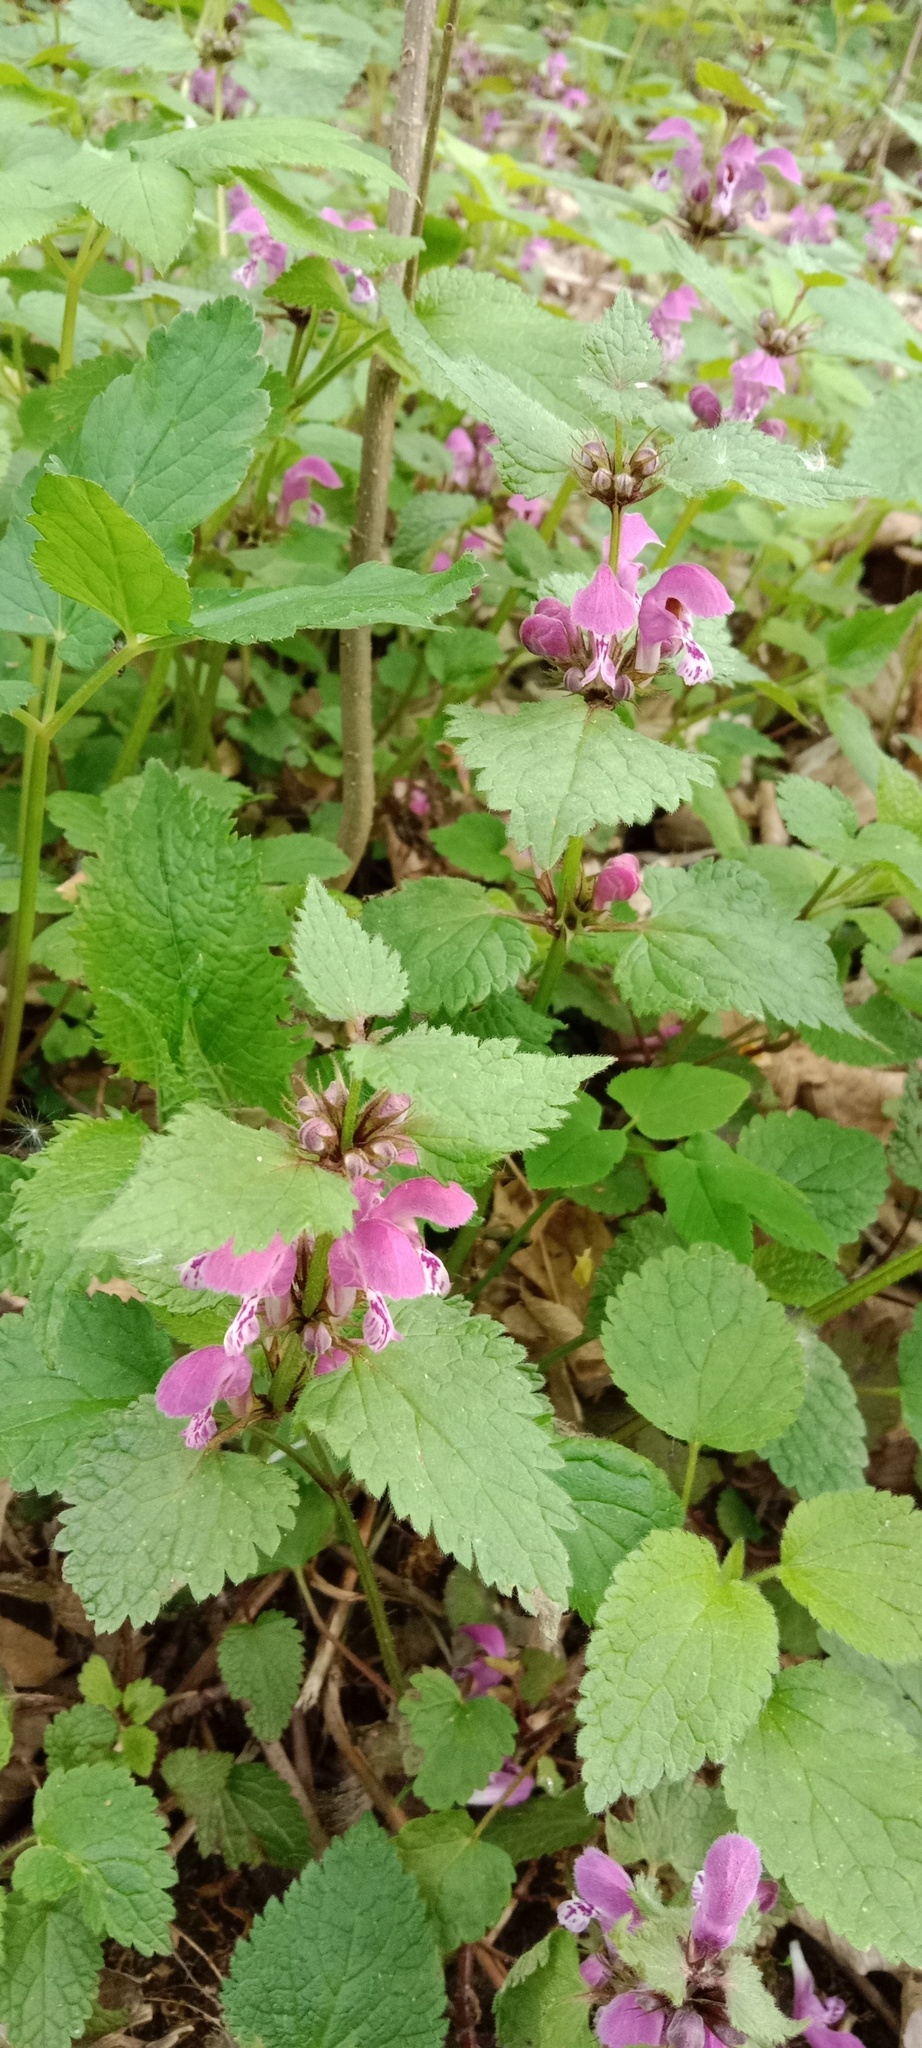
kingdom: Plantae
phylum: Tracheophyta
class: Magnoliopsida
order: Lamiales
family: Lamiaceae
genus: Lamium
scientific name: Lamium maculatum
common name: Spotted dead-nettle
